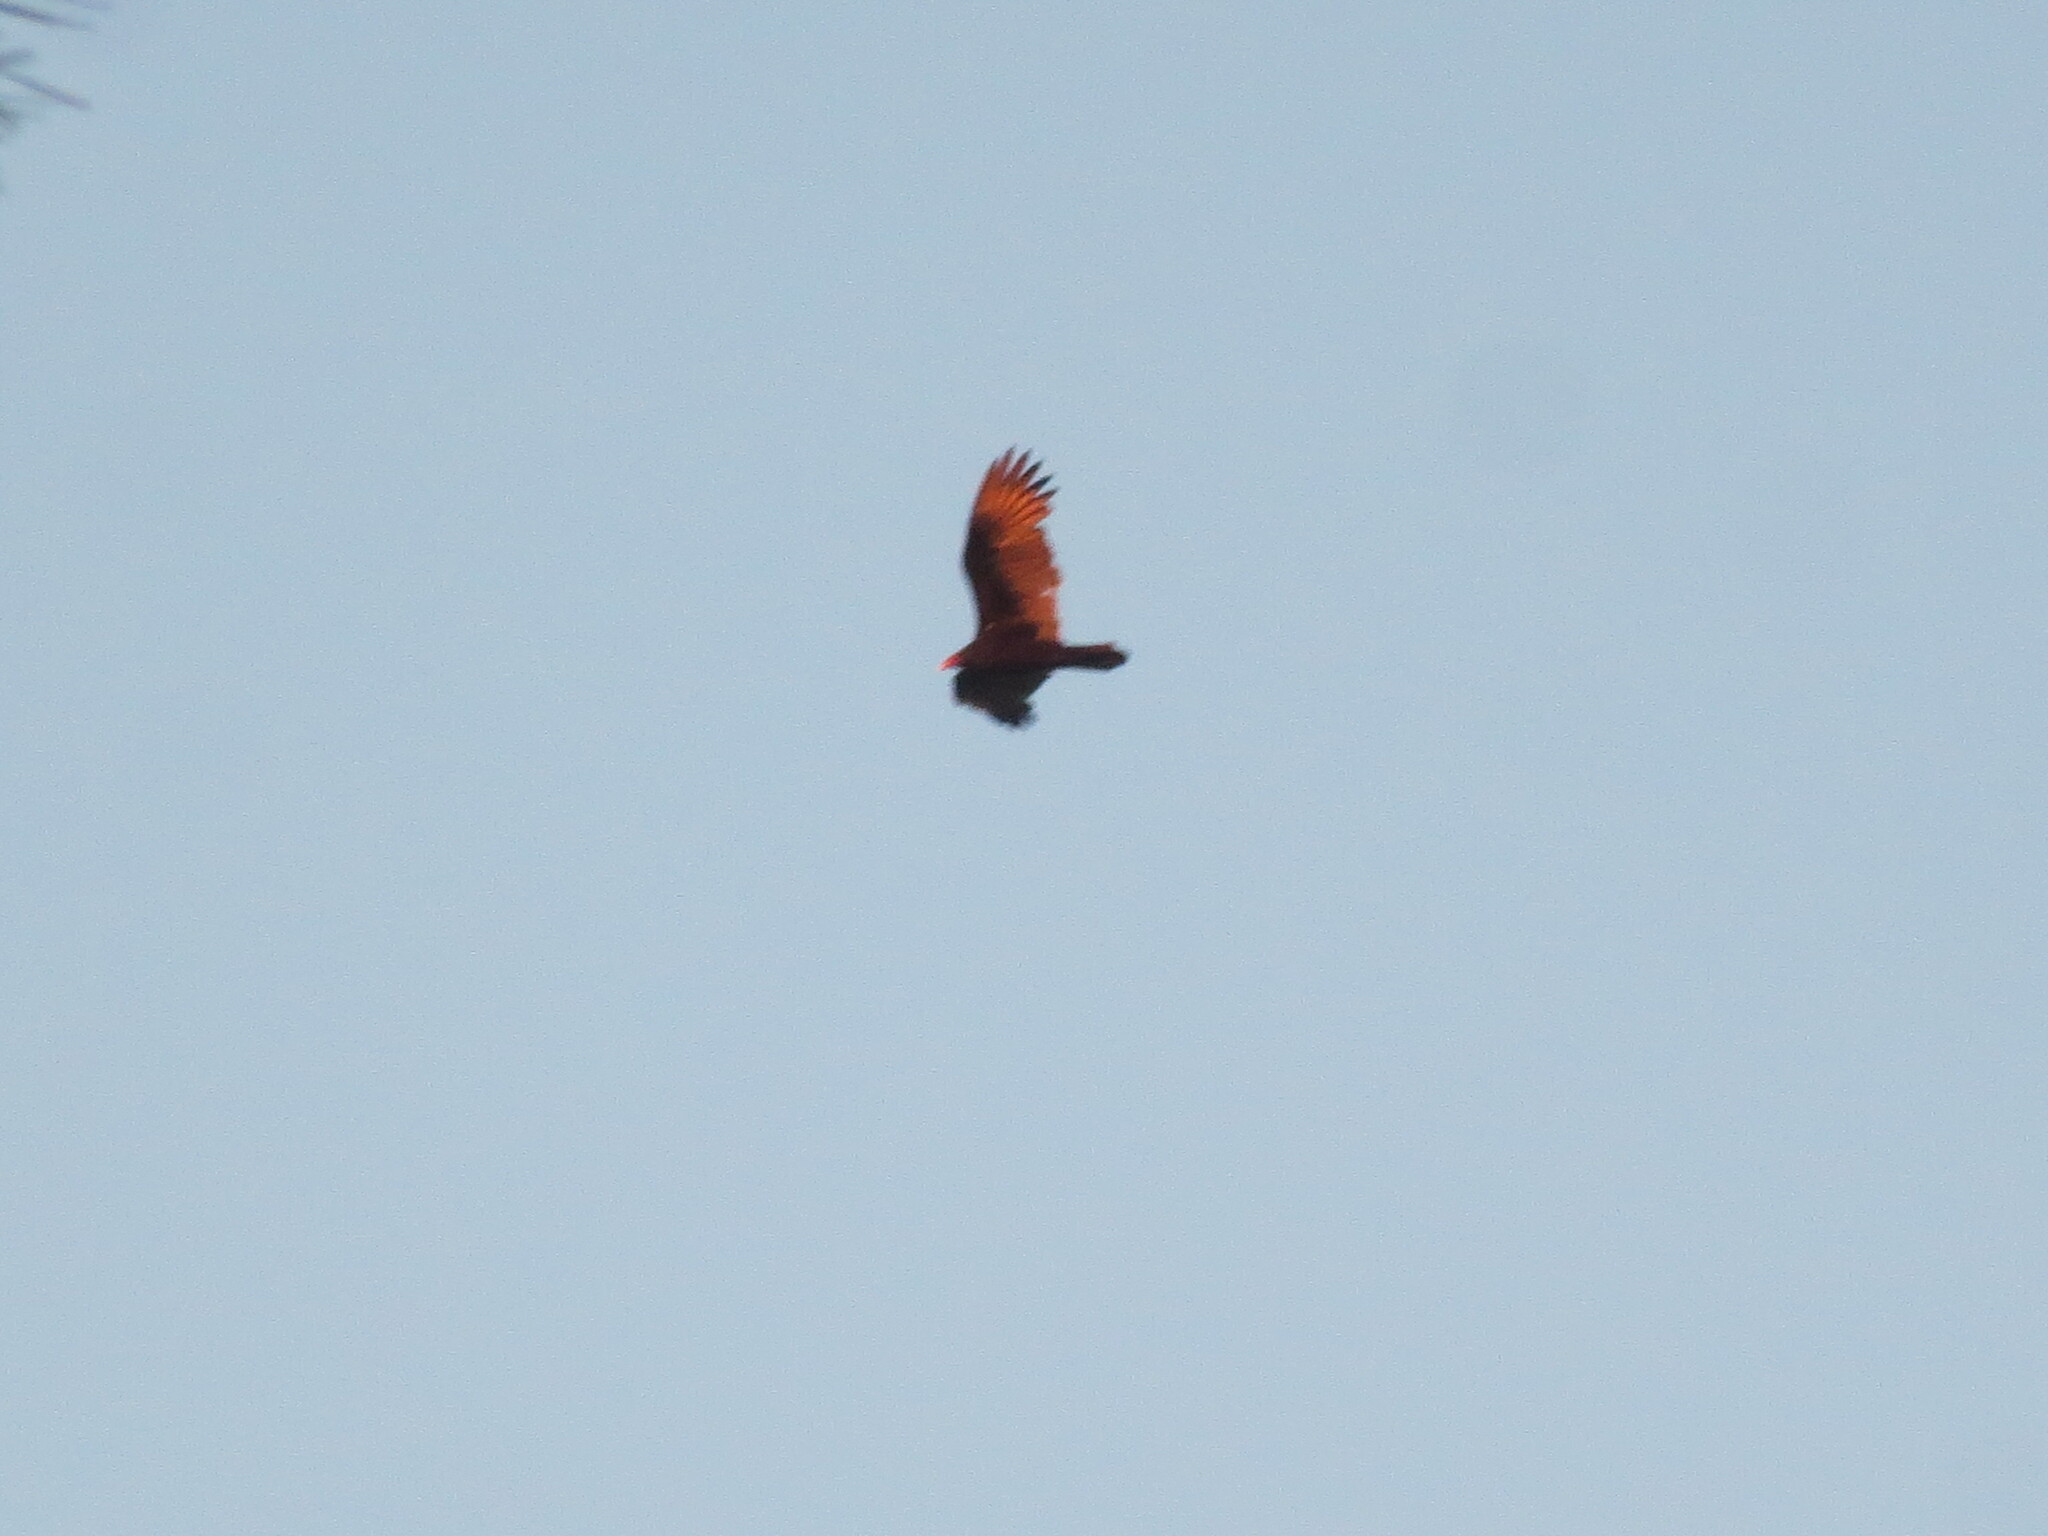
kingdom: Animalia
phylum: Chordata
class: Aves
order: Accipitriformes
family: Cathartidae
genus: Cathartes
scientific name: Cathartes aura
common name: Turkey vulture
